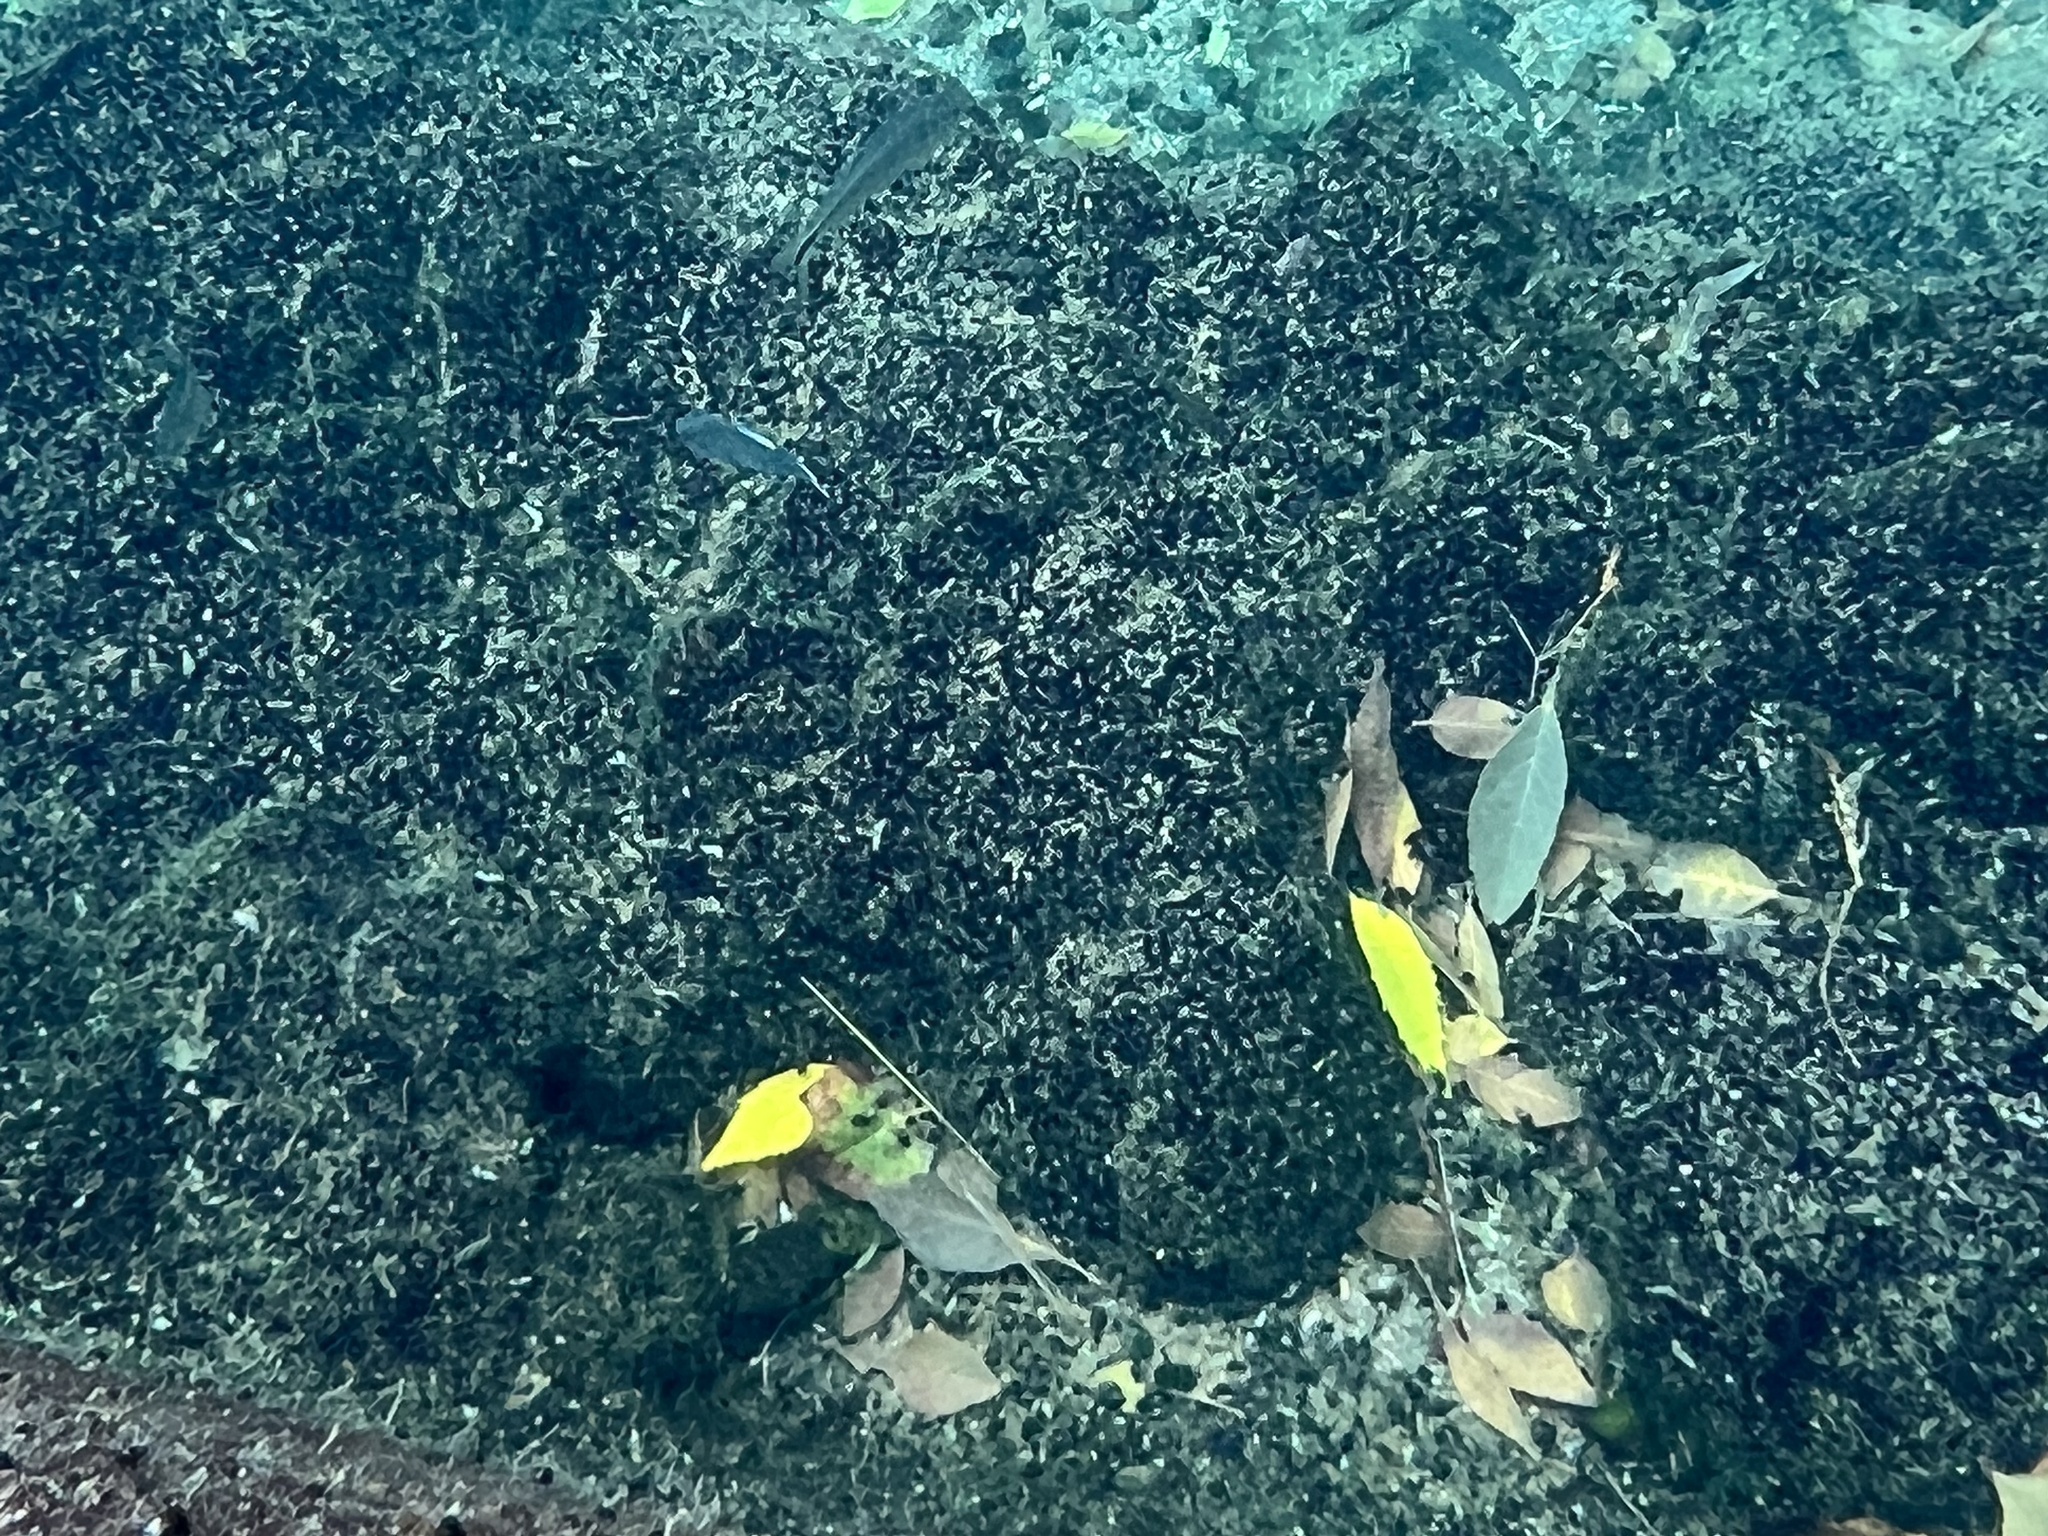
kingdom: Animalia
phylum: Chordata
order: Cyprinodontiformes
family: Cyprinodontidae
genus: Cyprinodon
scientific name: Cyprinodon elegans
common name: Comanche springs pupfish
